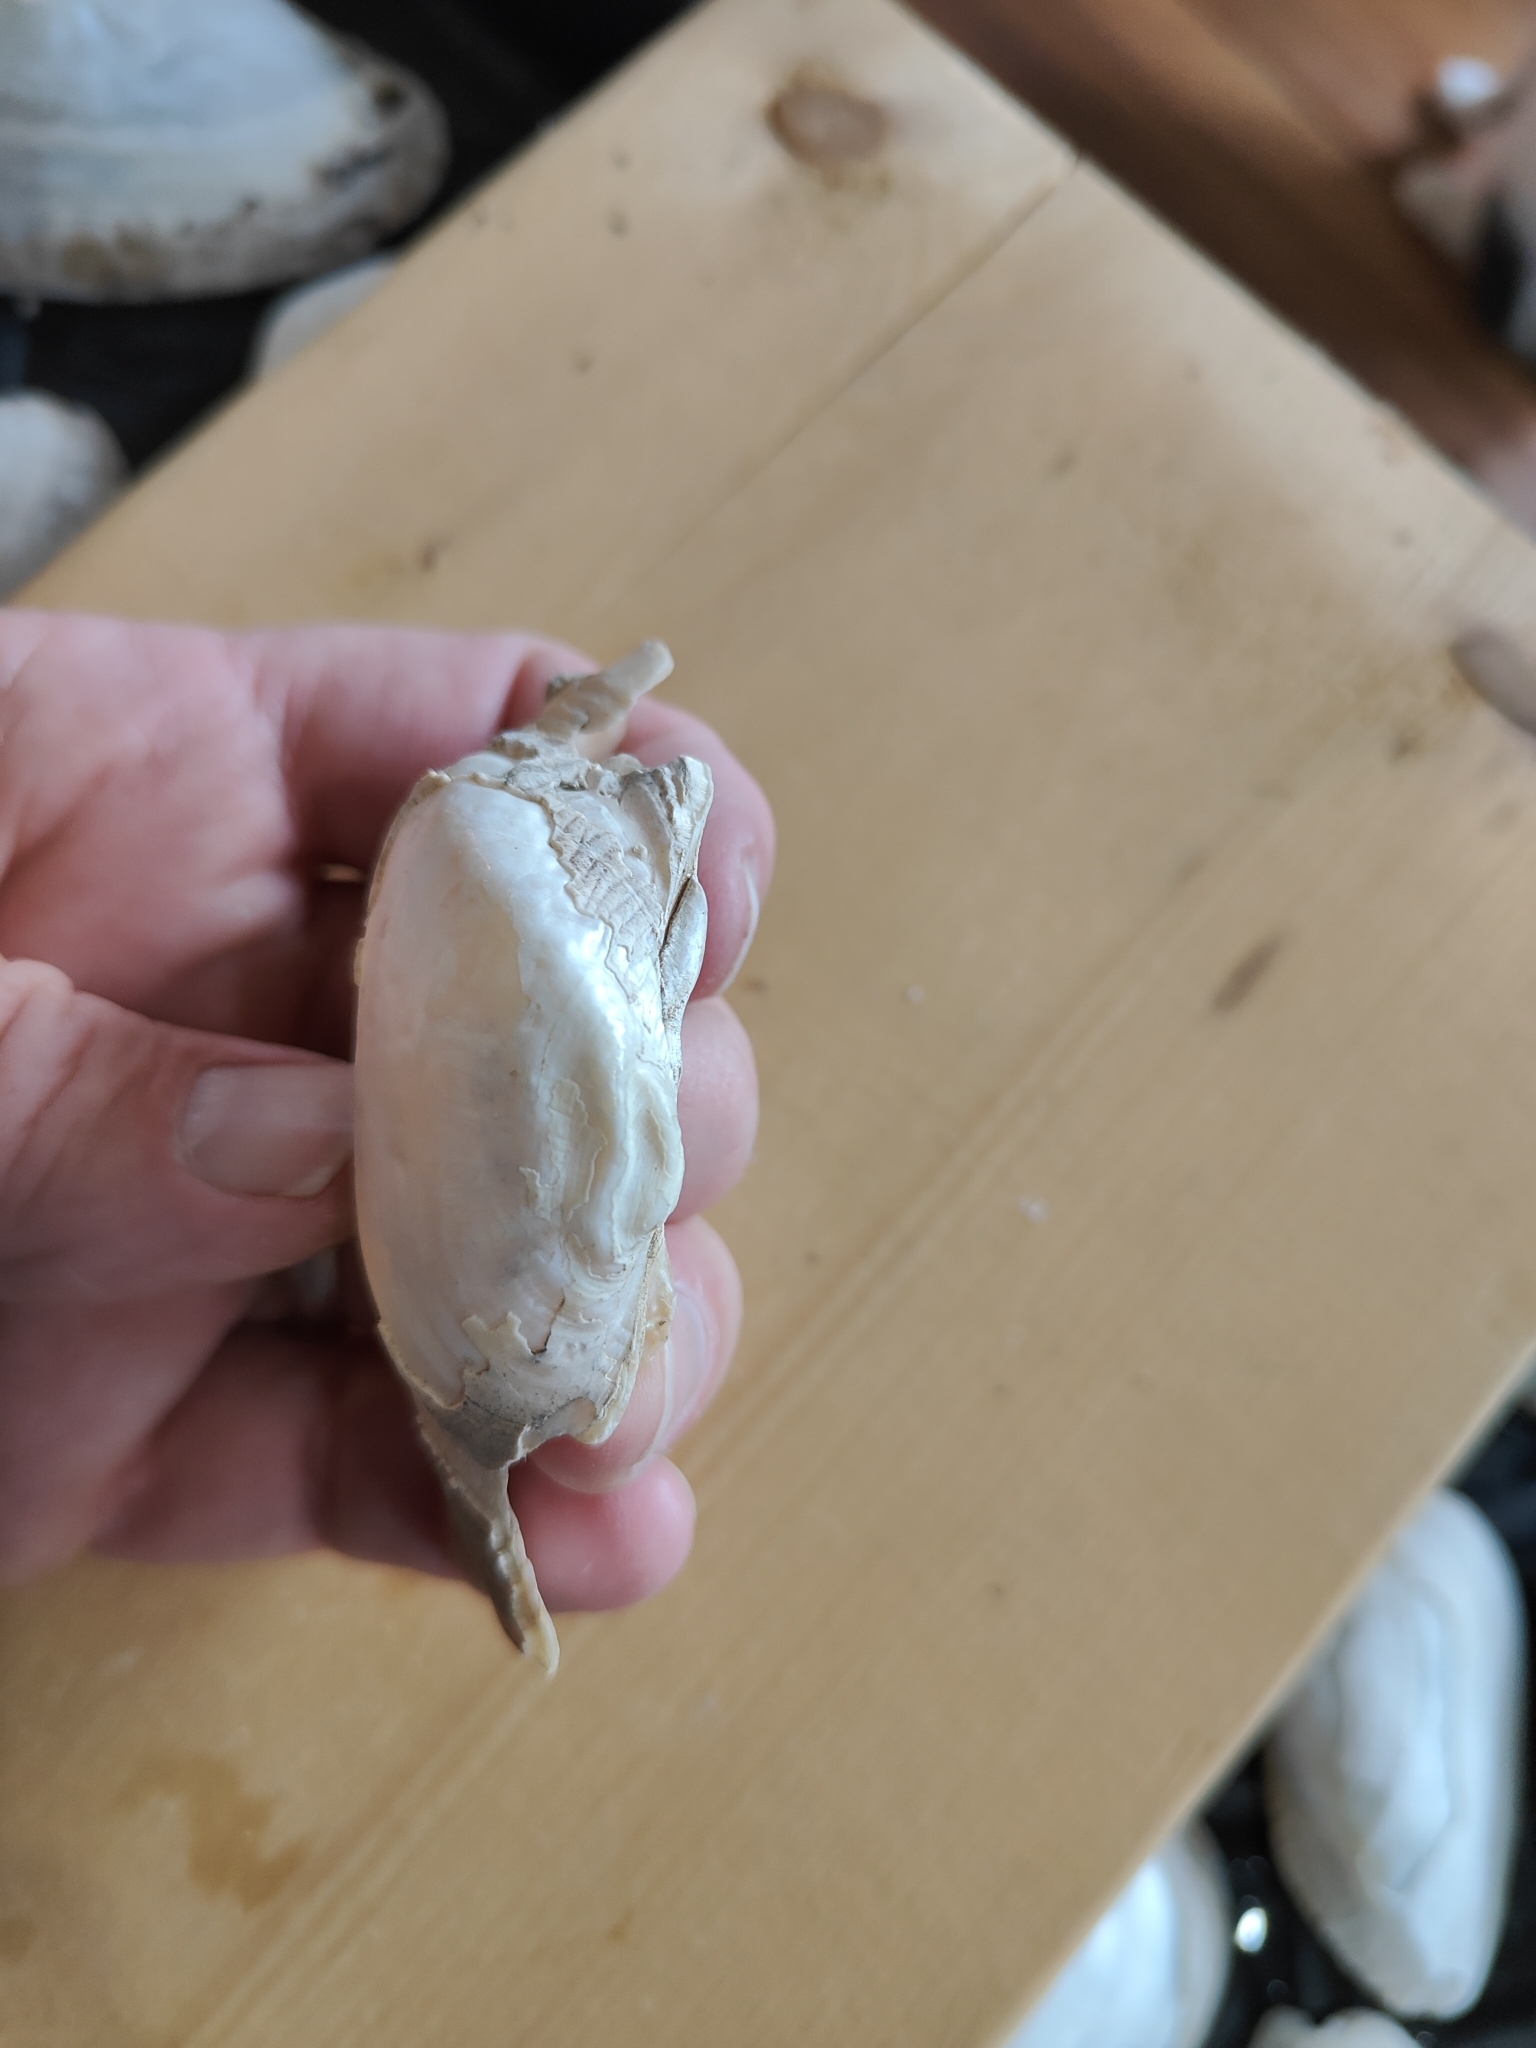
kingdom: Animalia
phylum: Mollusca
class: Bivalvia
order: Unionida
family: Unionidae
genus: Alasmidonta
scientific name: Alasmidonta marginata
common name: Elktoe
